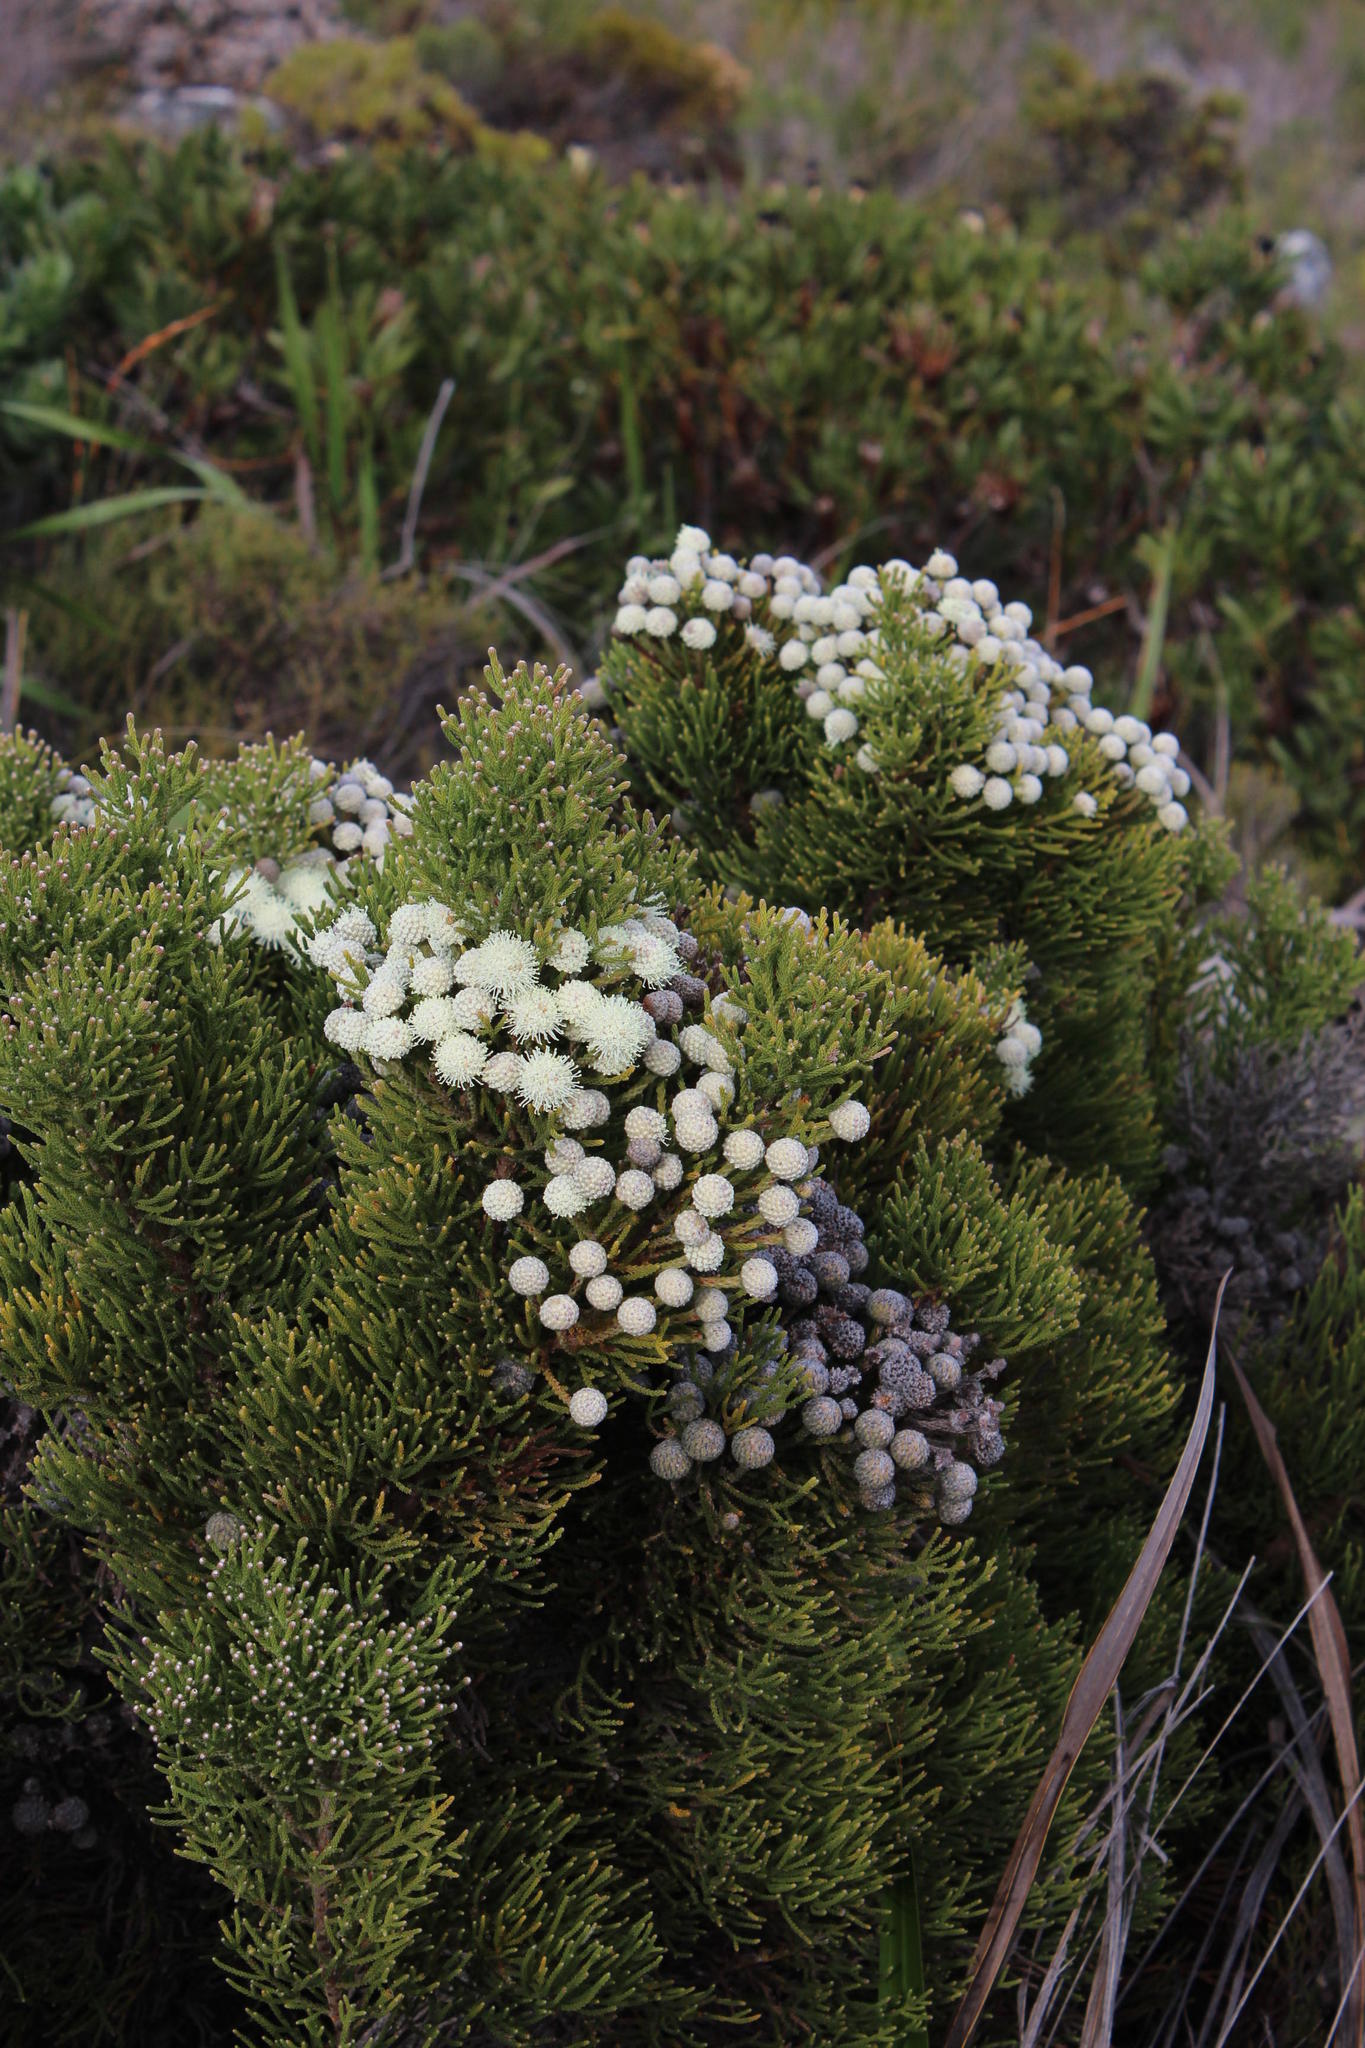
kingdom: Plantae
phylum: Tracheophyta
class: Magnoliopsida
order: Bruniales
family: Bruniaceae
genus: Brunia
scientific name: Brunia noduliflora
